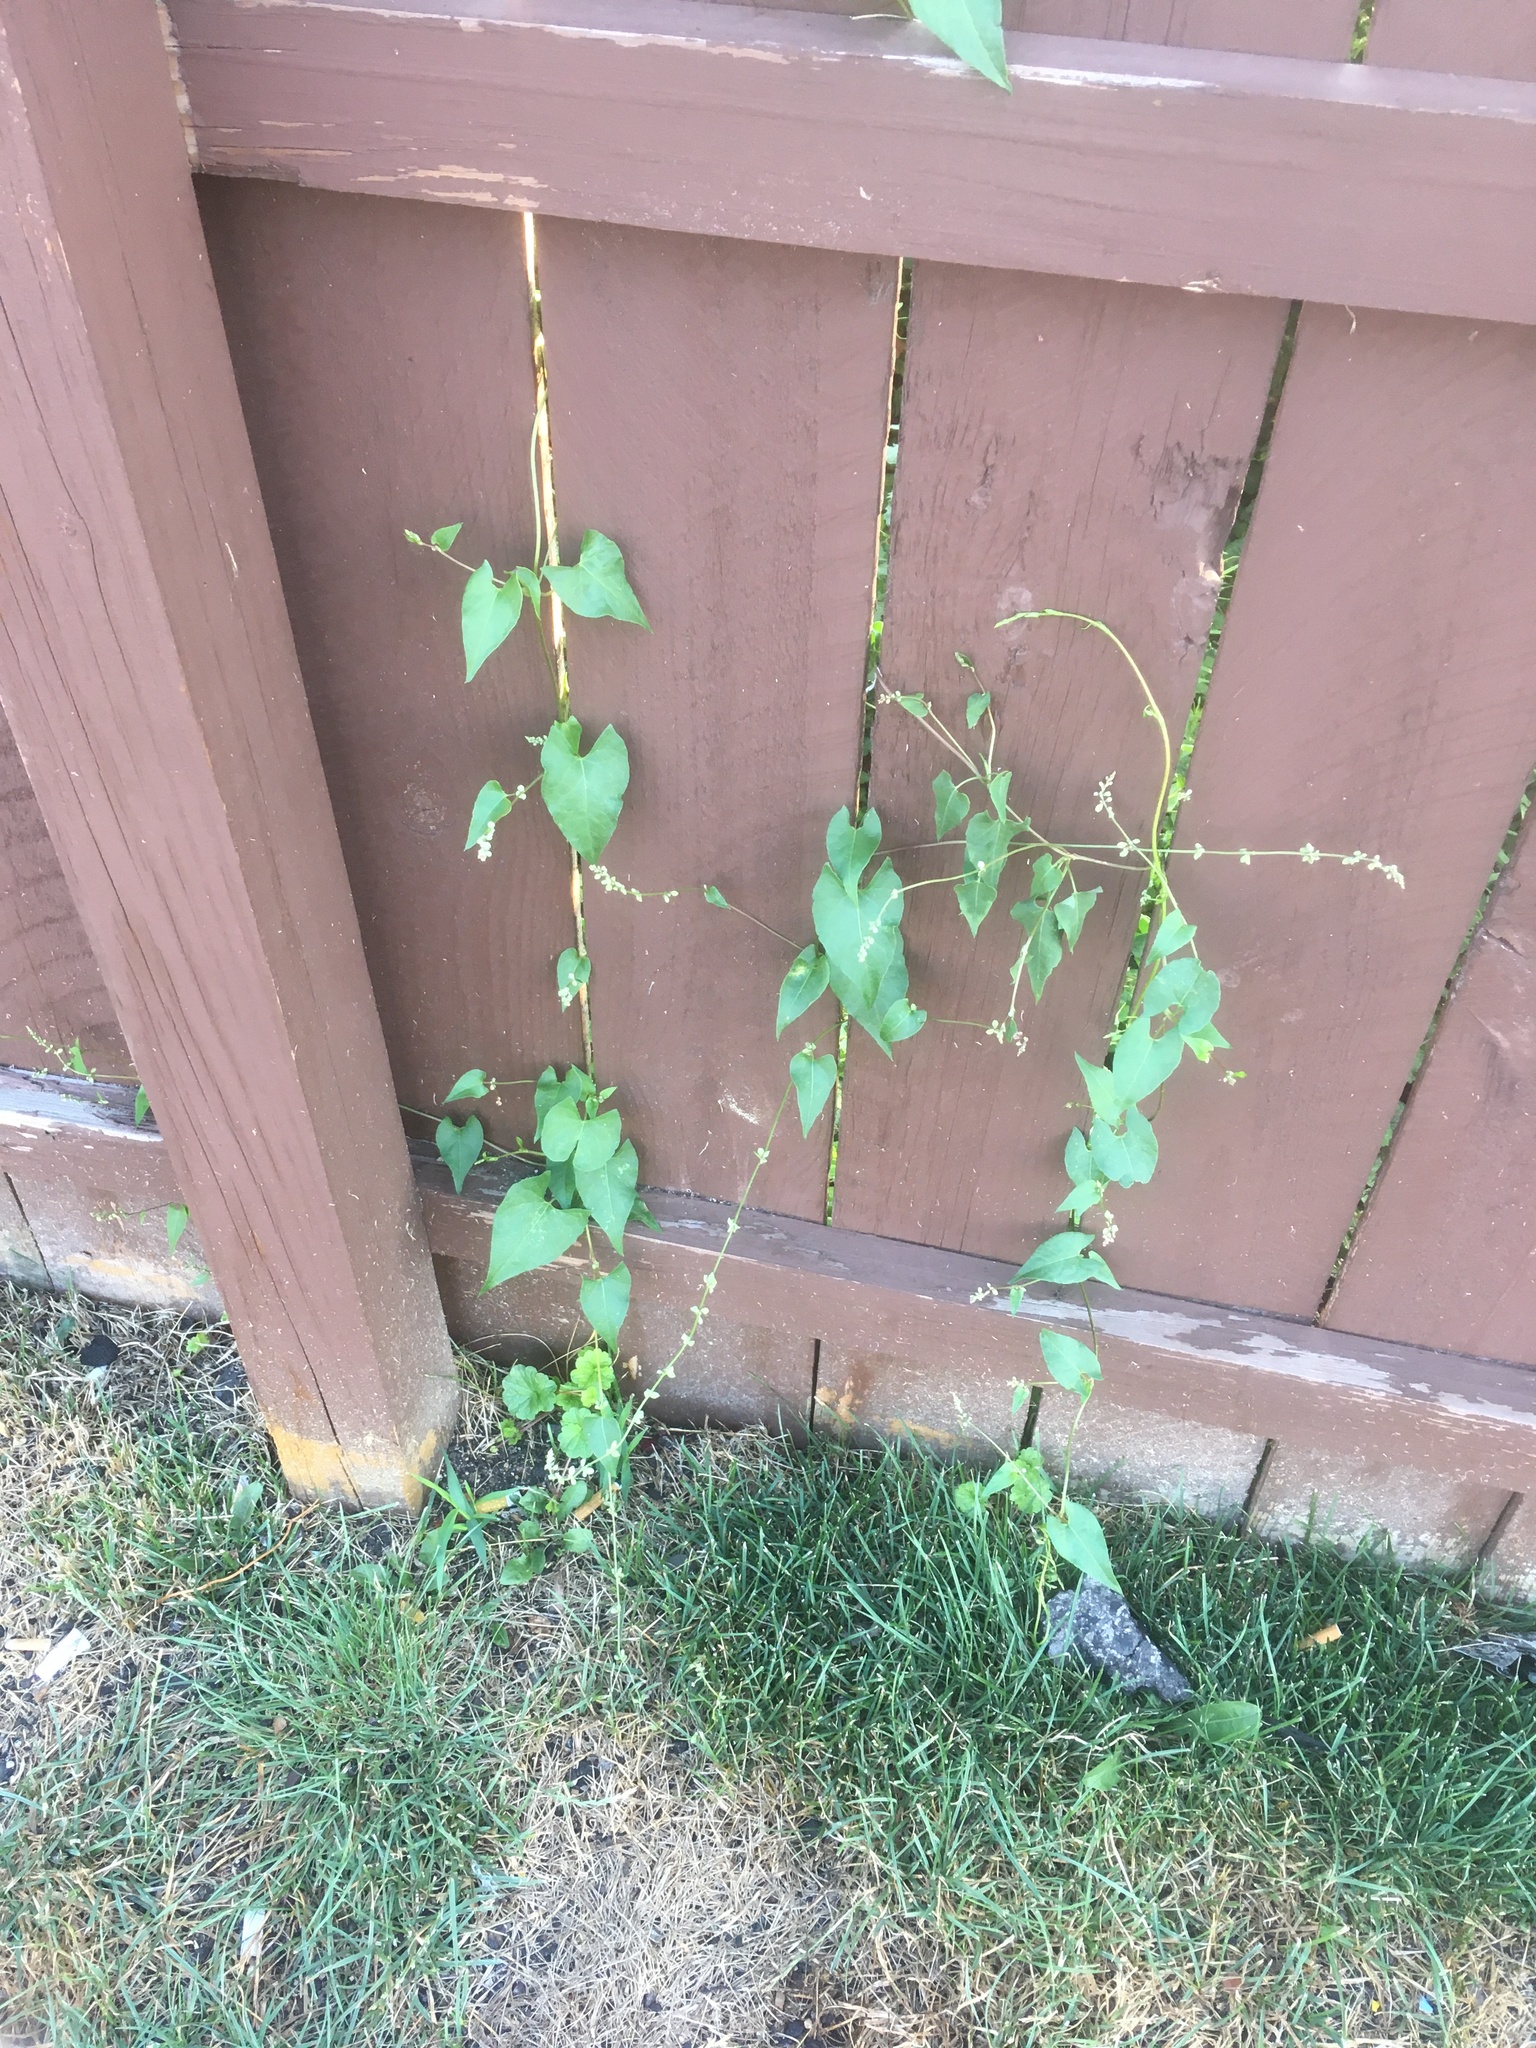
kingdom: Plantae
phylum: Tracheophyta
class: Magnoliopsida
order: Caryophyllales
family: Polygonaceae
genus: Fallopia
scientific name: Fallopia convolvulus
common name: Black bindweed
